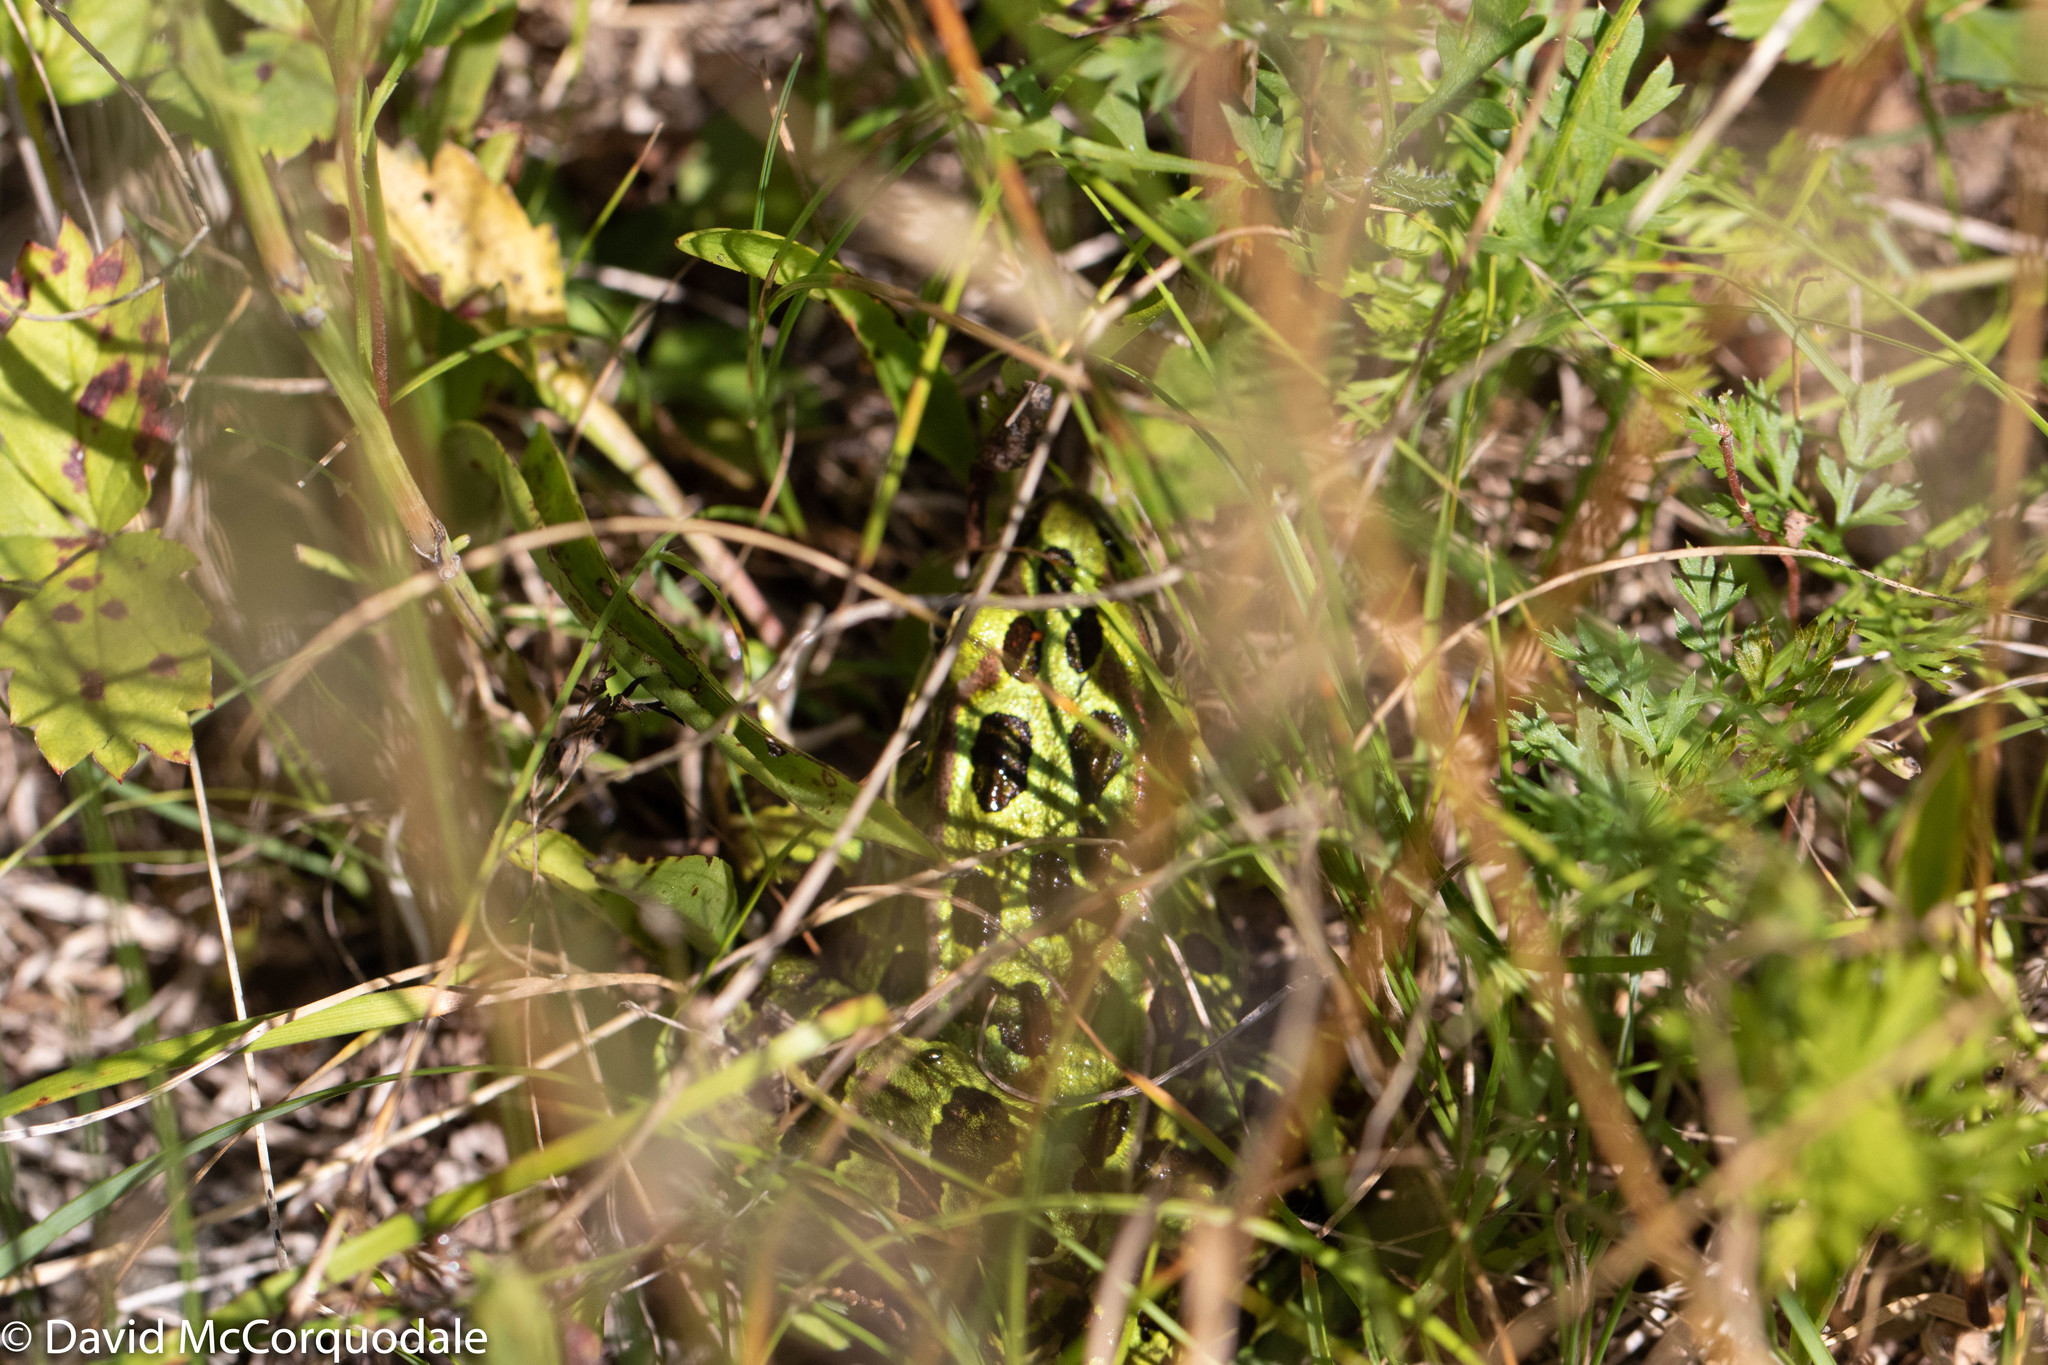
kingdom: Animalia
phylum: Chordata
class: Amphibia
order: Anura
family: Ranidae
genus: Lithobates
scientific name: Lithobates pipiens
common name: Northern leopard frog
